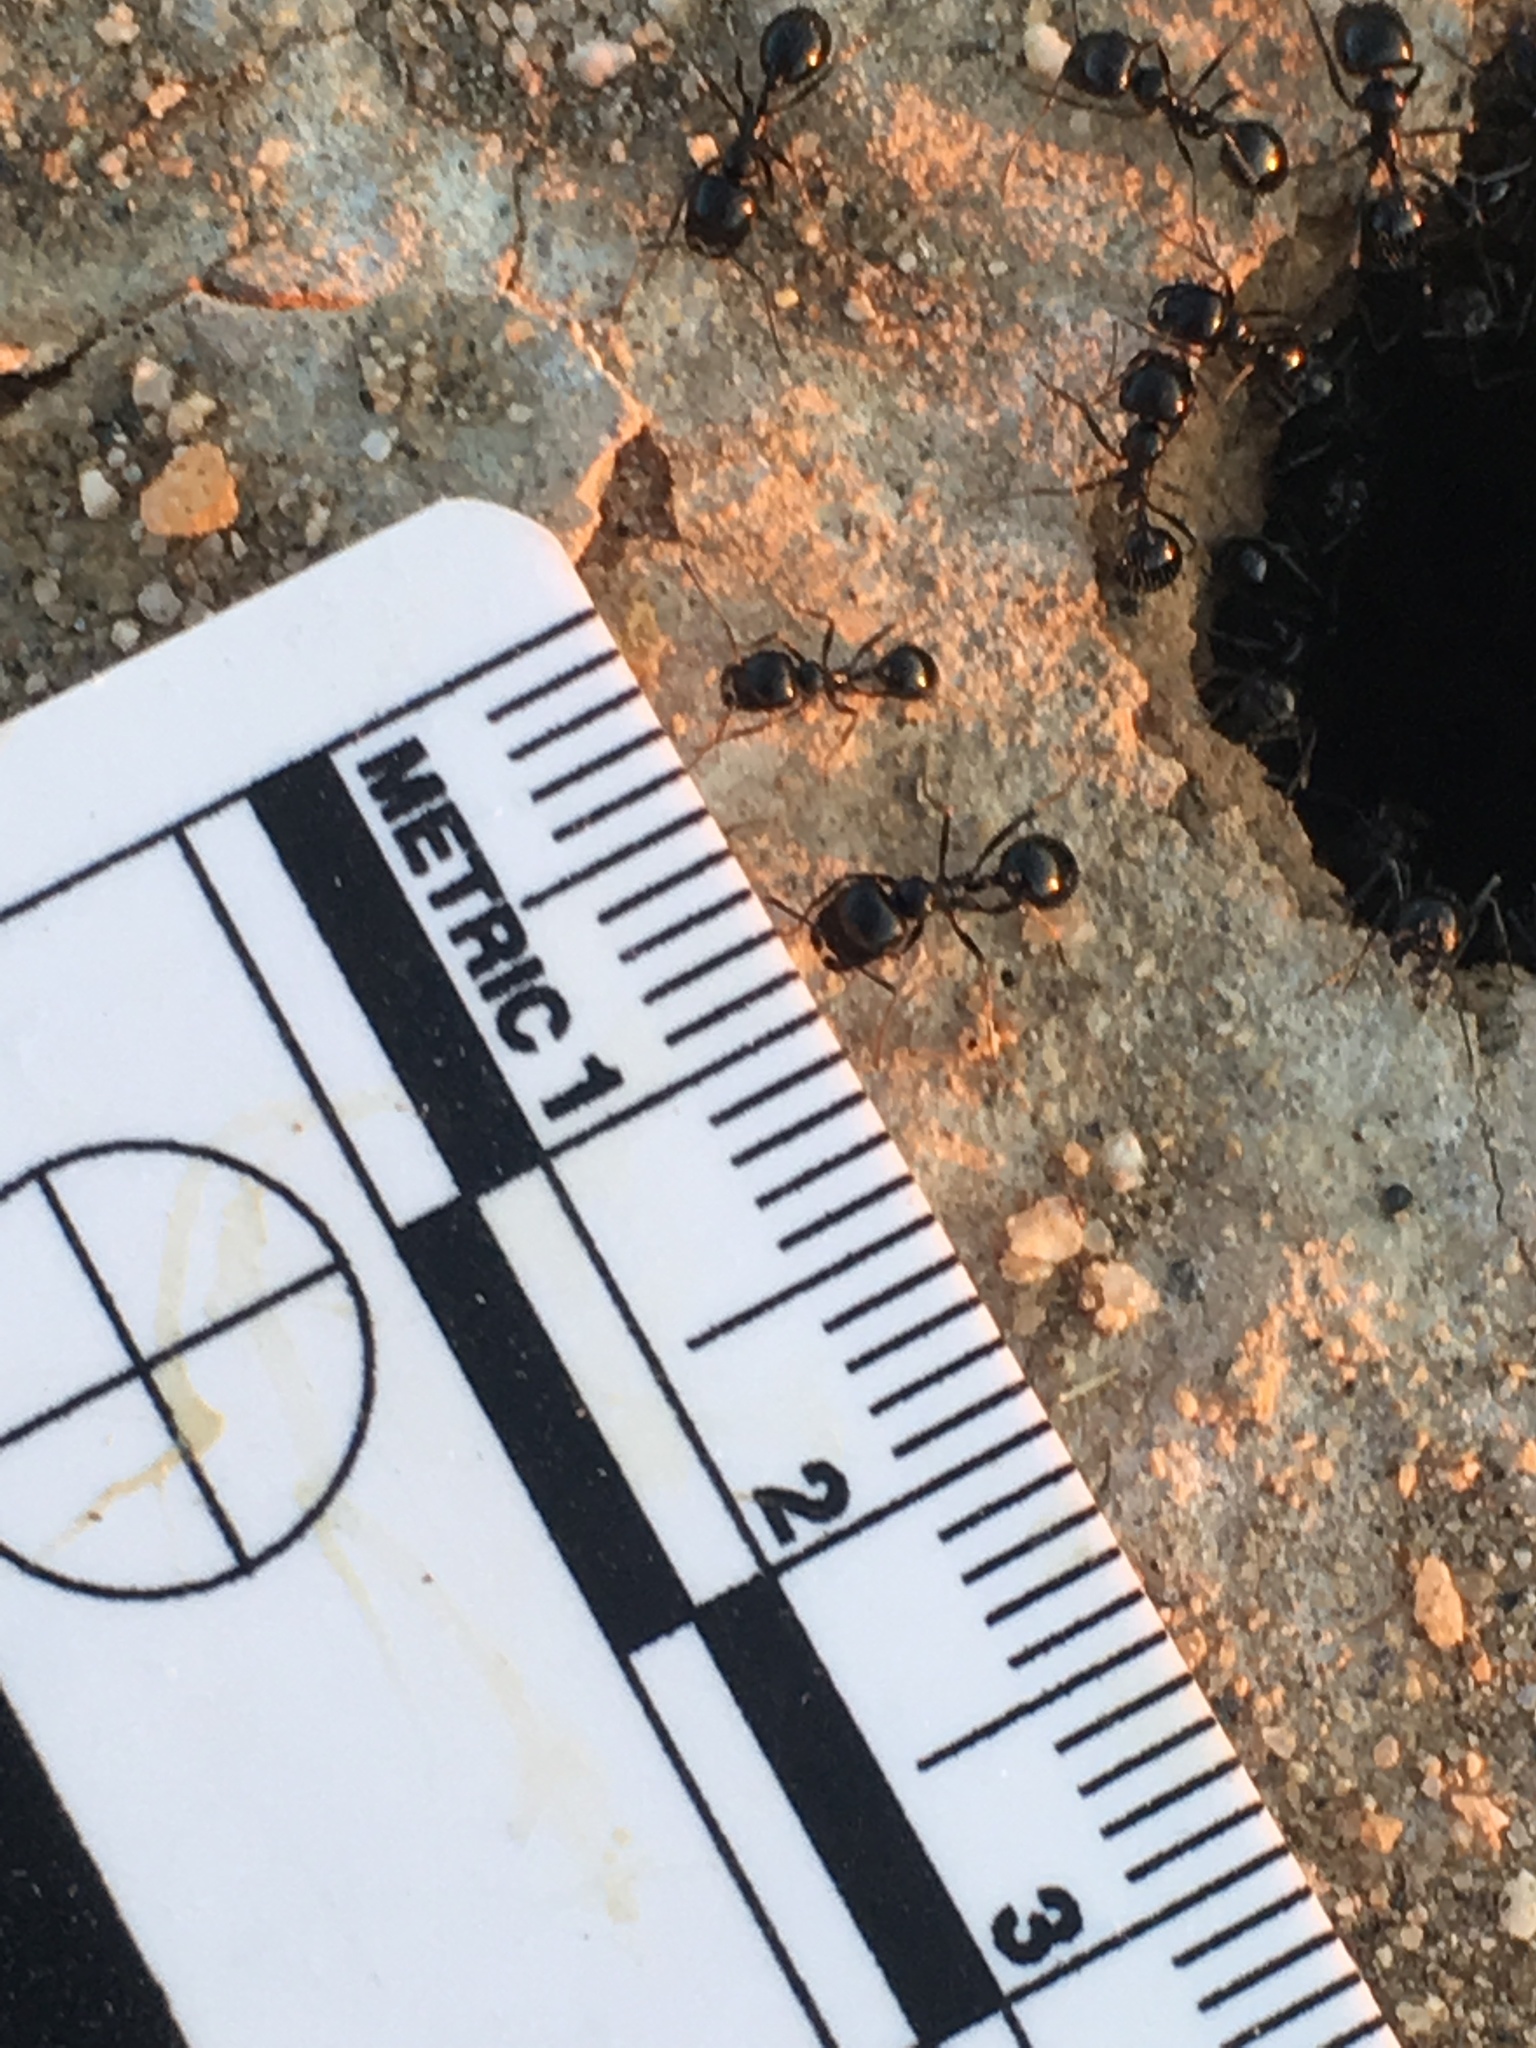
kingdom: Animalia
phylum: Arthropoda
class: Insecta
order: Hymenoptera
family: Formicidae
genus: Messor
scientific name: Messor pergandei
